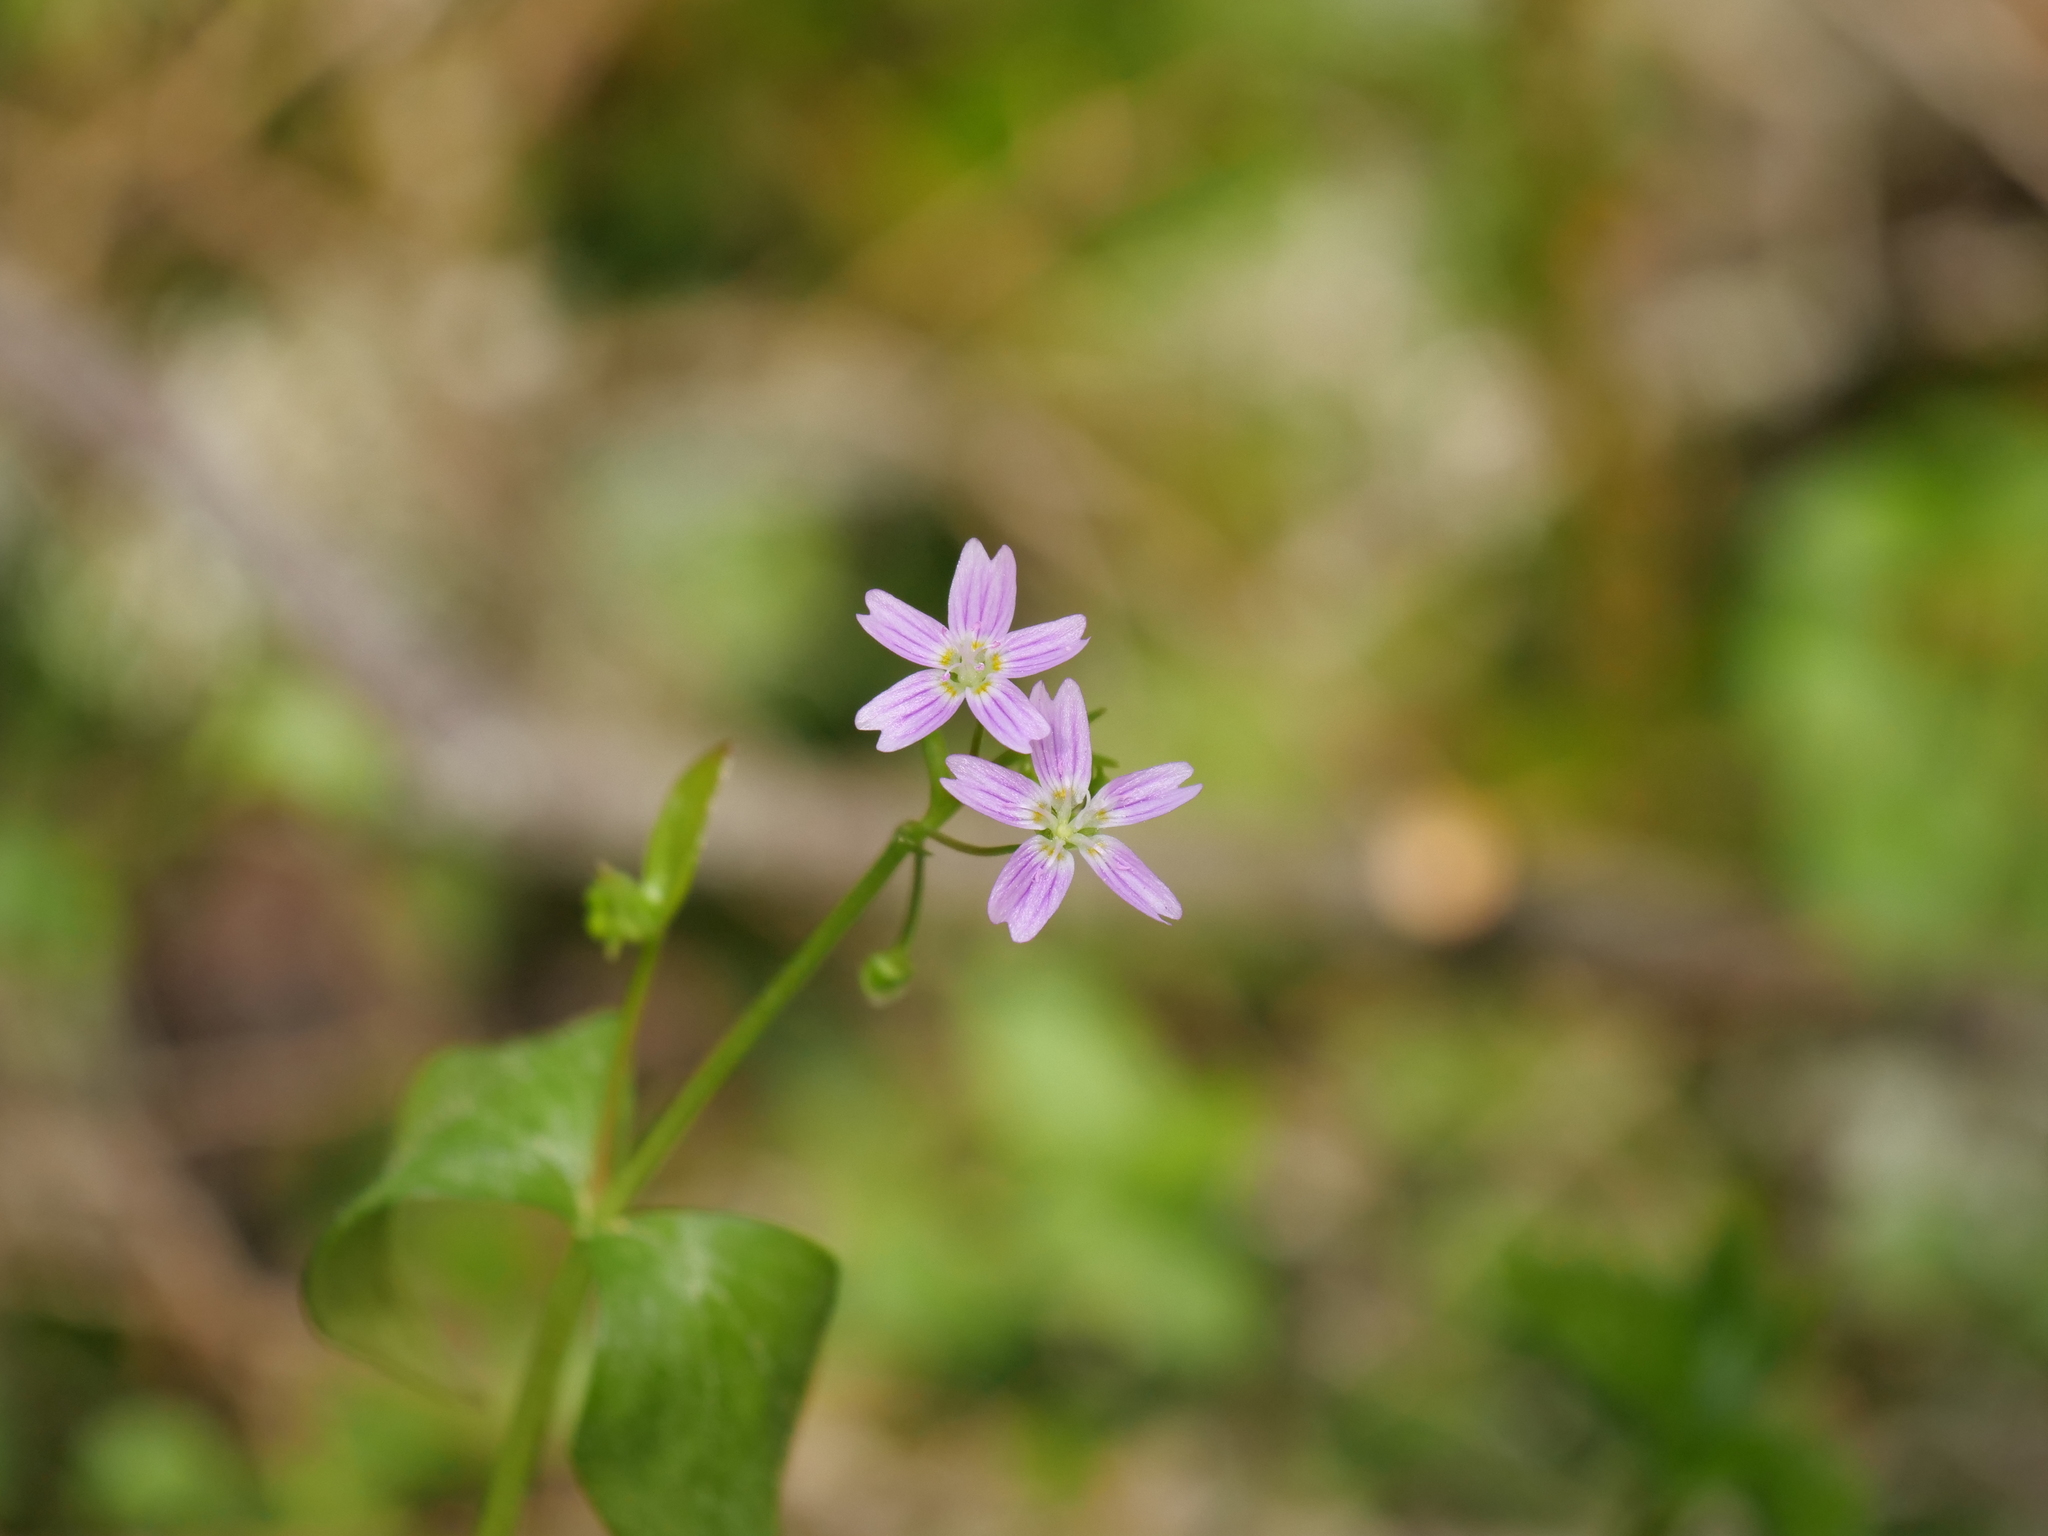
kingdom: Plantae
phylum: Tracheophyta
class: Magnoliopsida
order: Caryophyllales
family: Montiaceae
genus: Claytonia
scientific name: Claytonia sibirica
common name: Pink purslane
